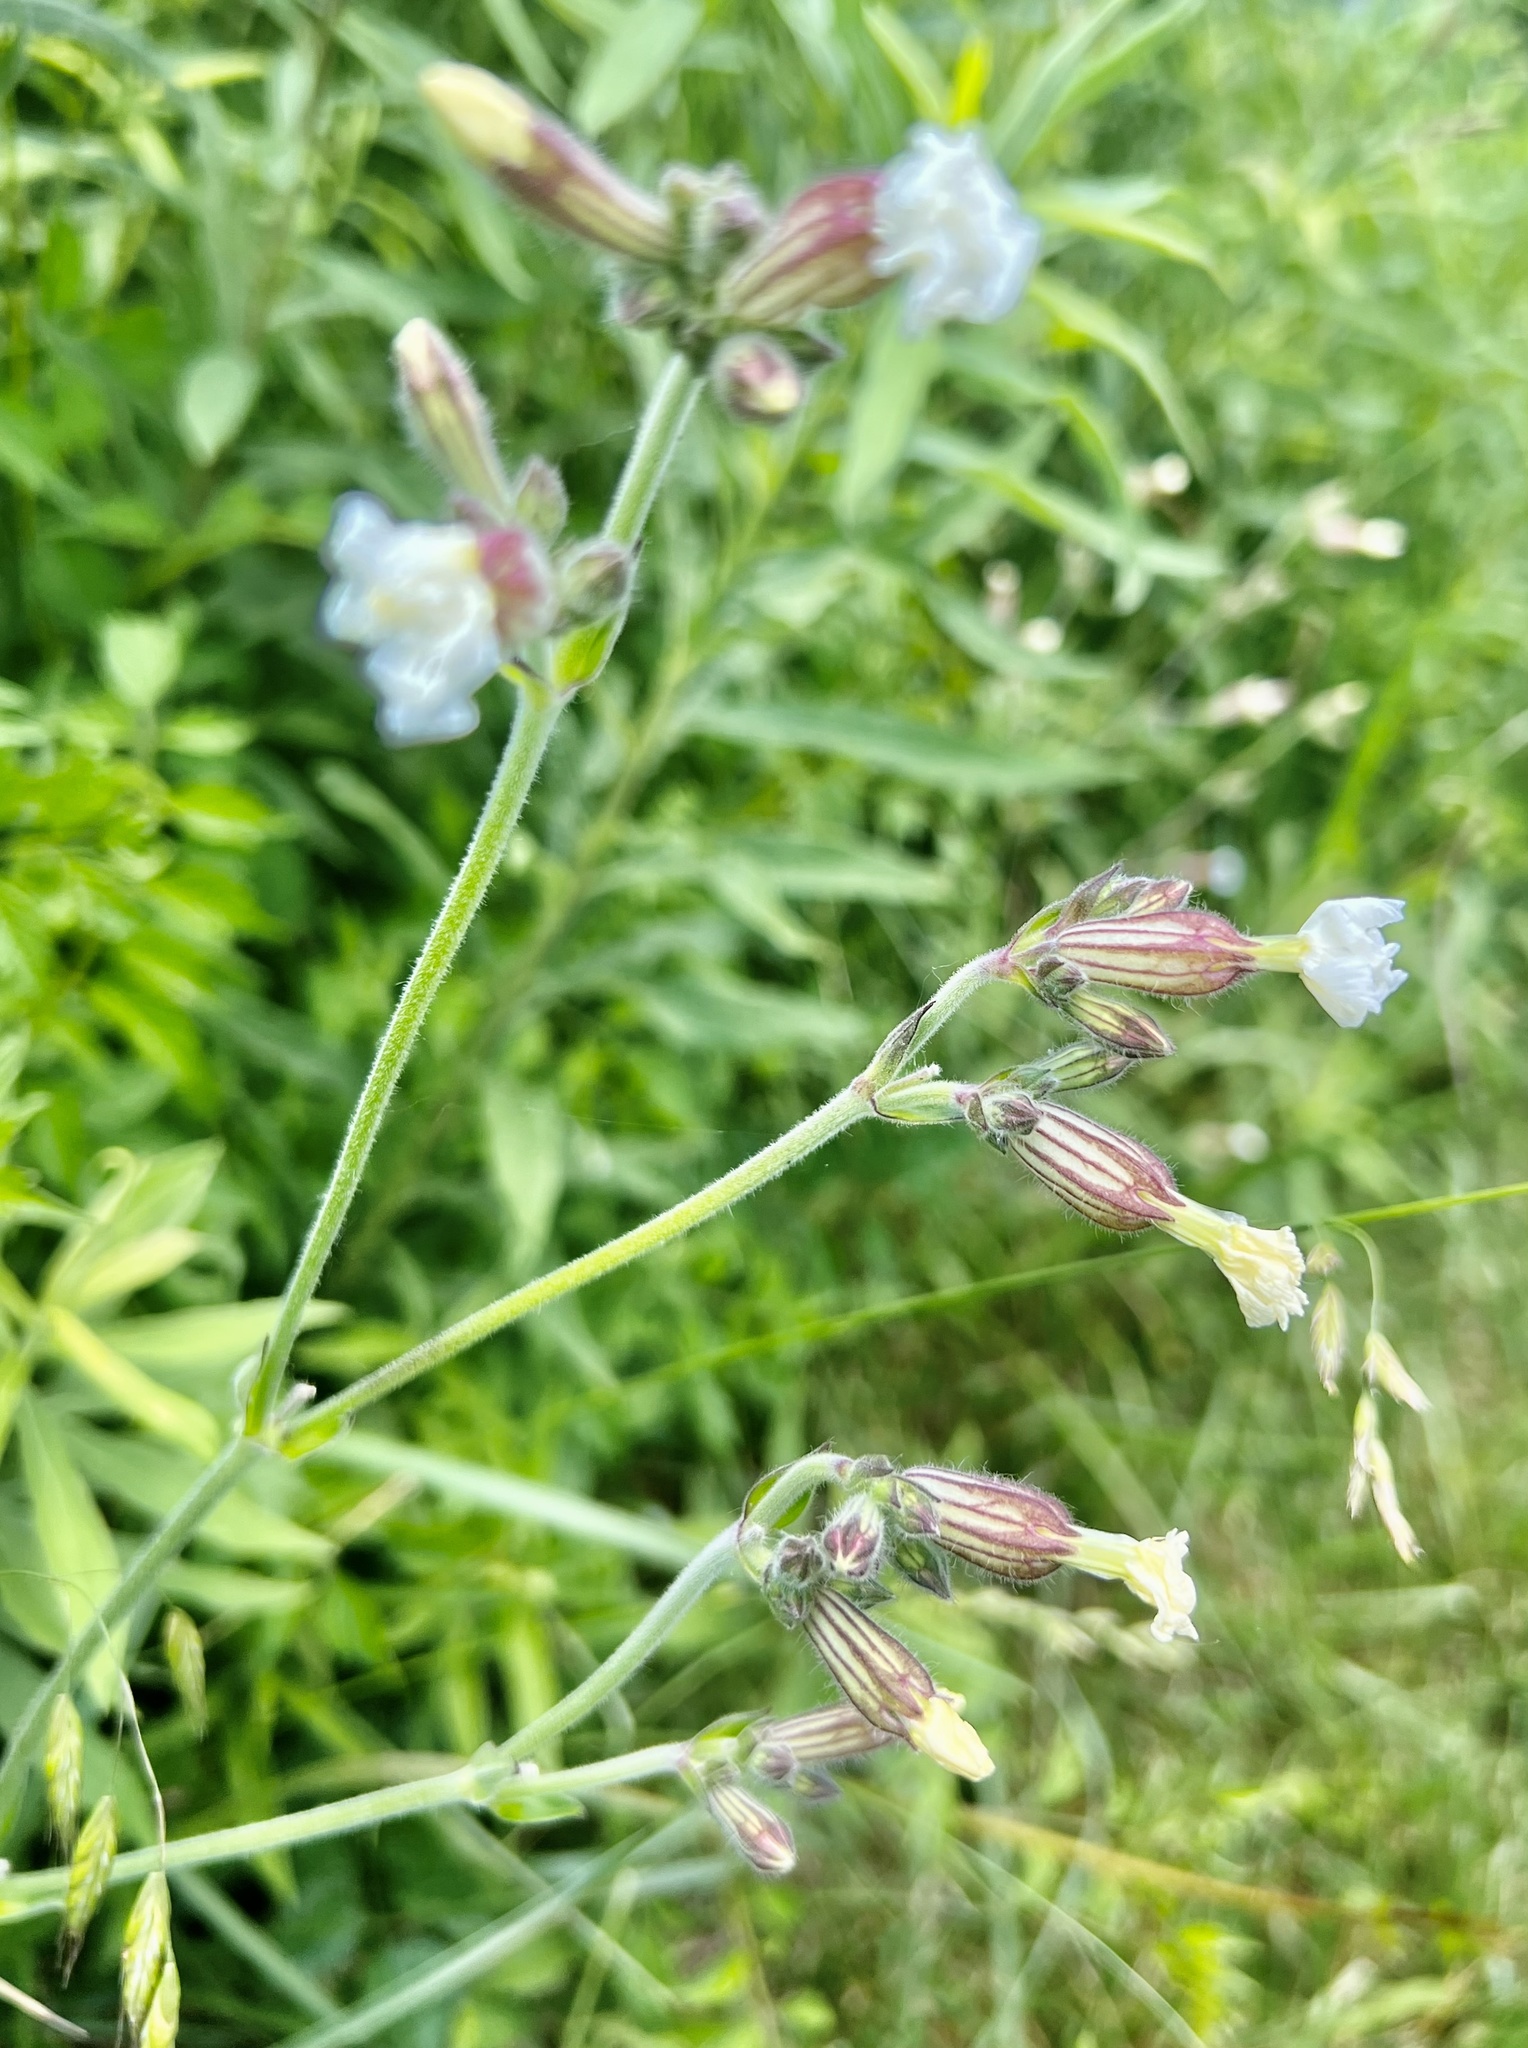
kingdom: Plantae
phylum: Tracheophyta
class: Magnoliopsida
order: Caryophyllales
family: Caryophyllaceae
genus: Silene
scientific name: Silene latifolia
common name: White campion
